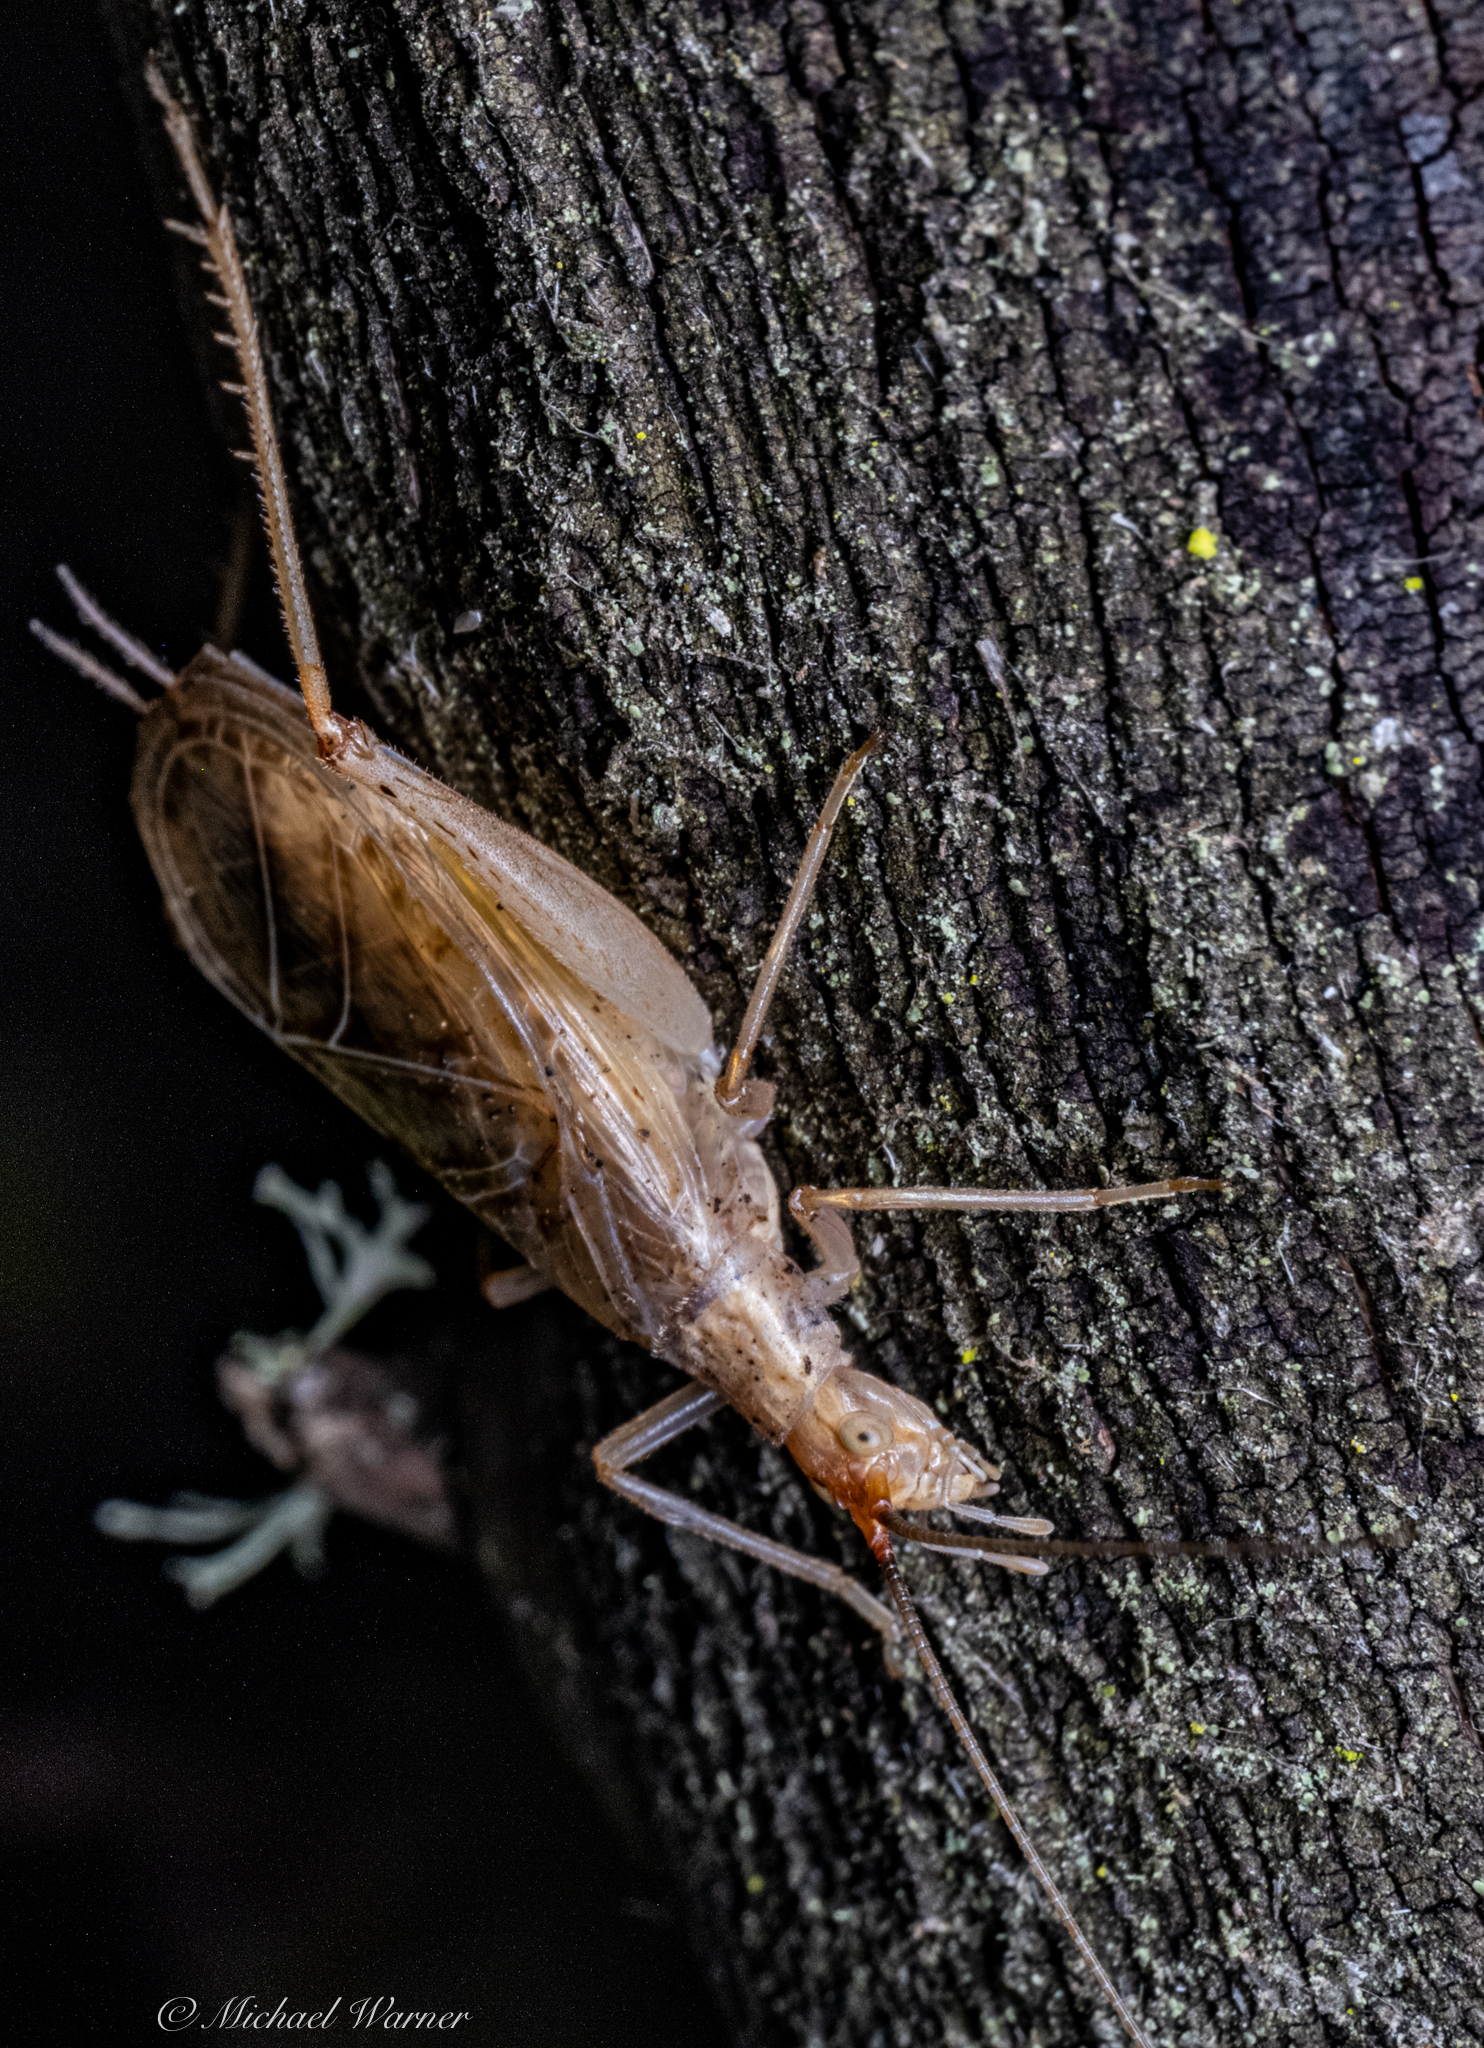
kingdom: Animalia
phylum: Arthropoda
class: Insecta
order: Orthoptera
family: Gryllidae
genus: Oecanthus
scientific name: Oecanthus californicus
